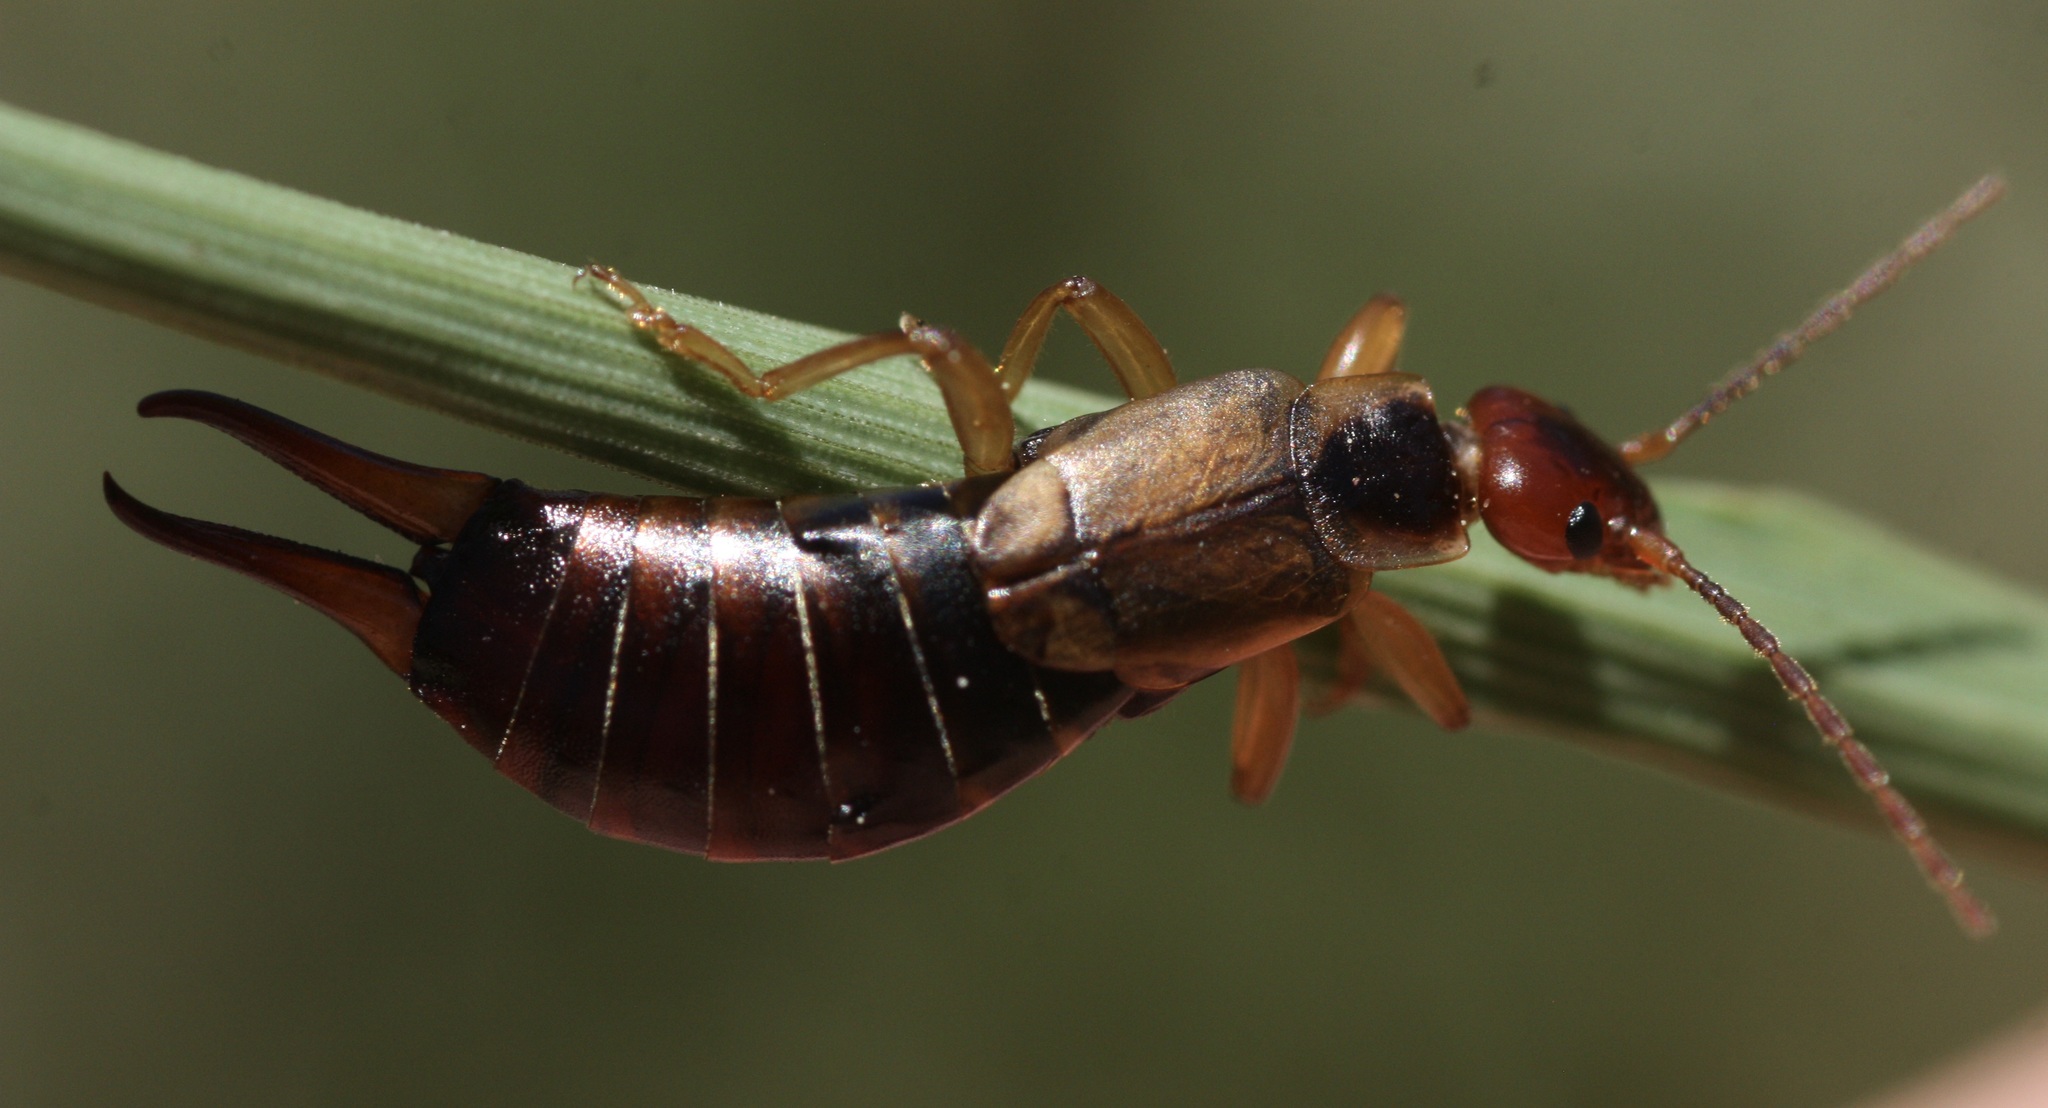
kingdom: Animalia
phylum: Arthropoda
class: Insecta
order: Dermaptera
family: Forficulidae
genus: Forficula
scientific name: Forficula
